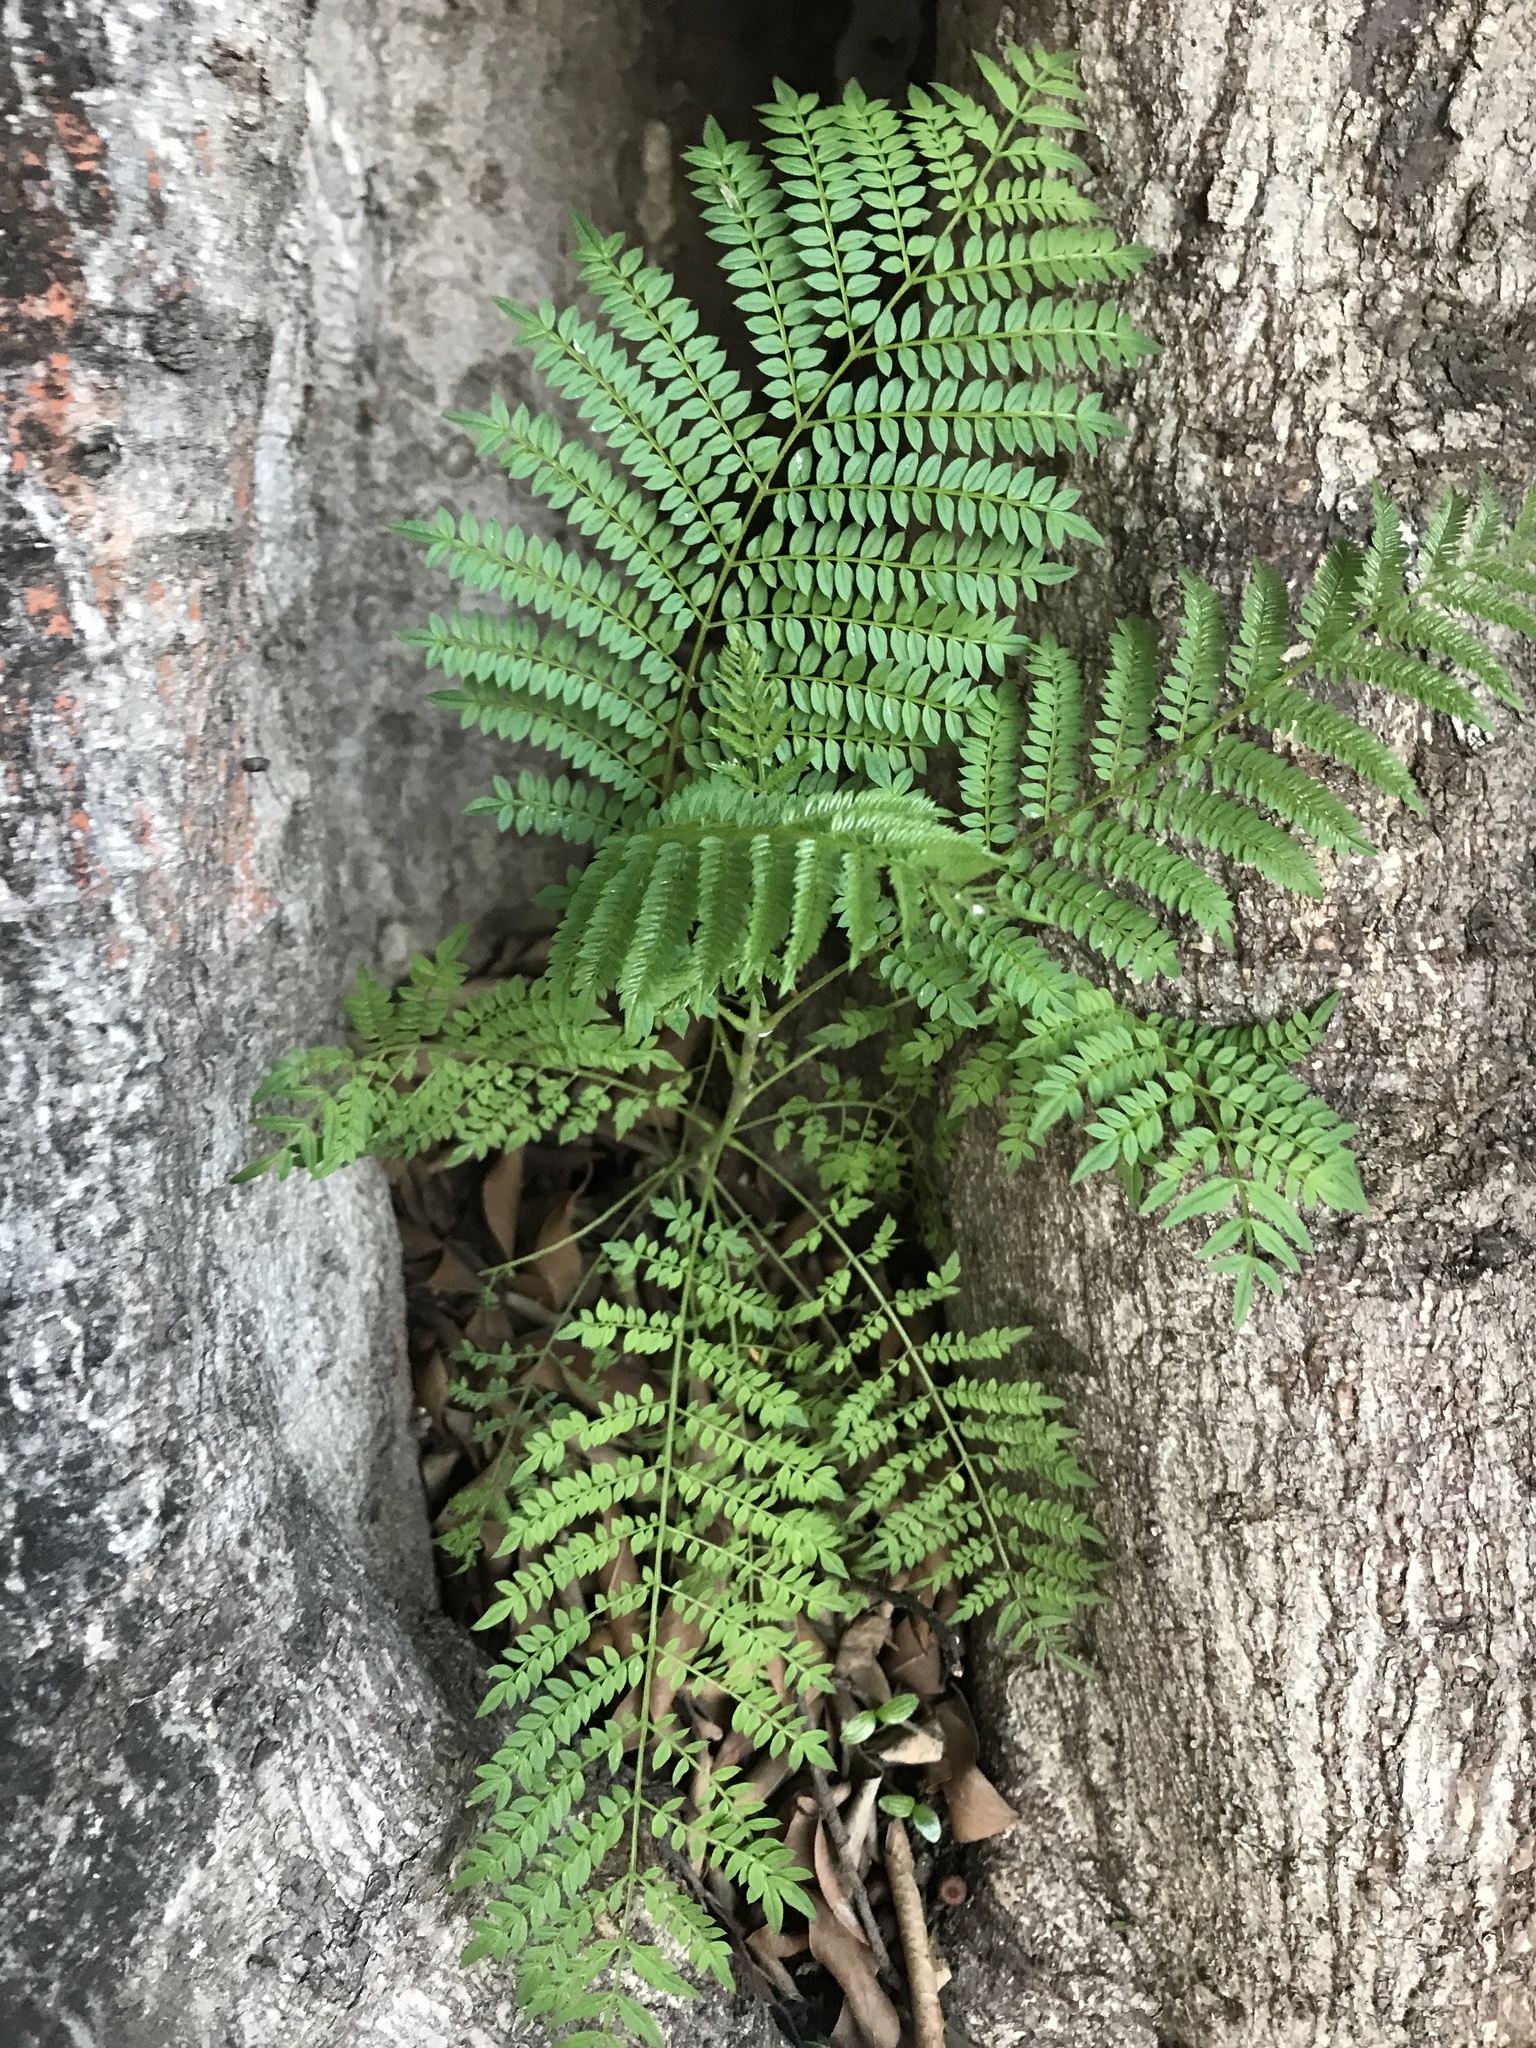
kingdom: Plantae
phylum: Tracheophyta
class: Magnoliopsida
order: Lamiales
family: Bignoniaceae
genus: Jacaranda
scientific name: Jacaranda mimosifolia
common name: Black poui
